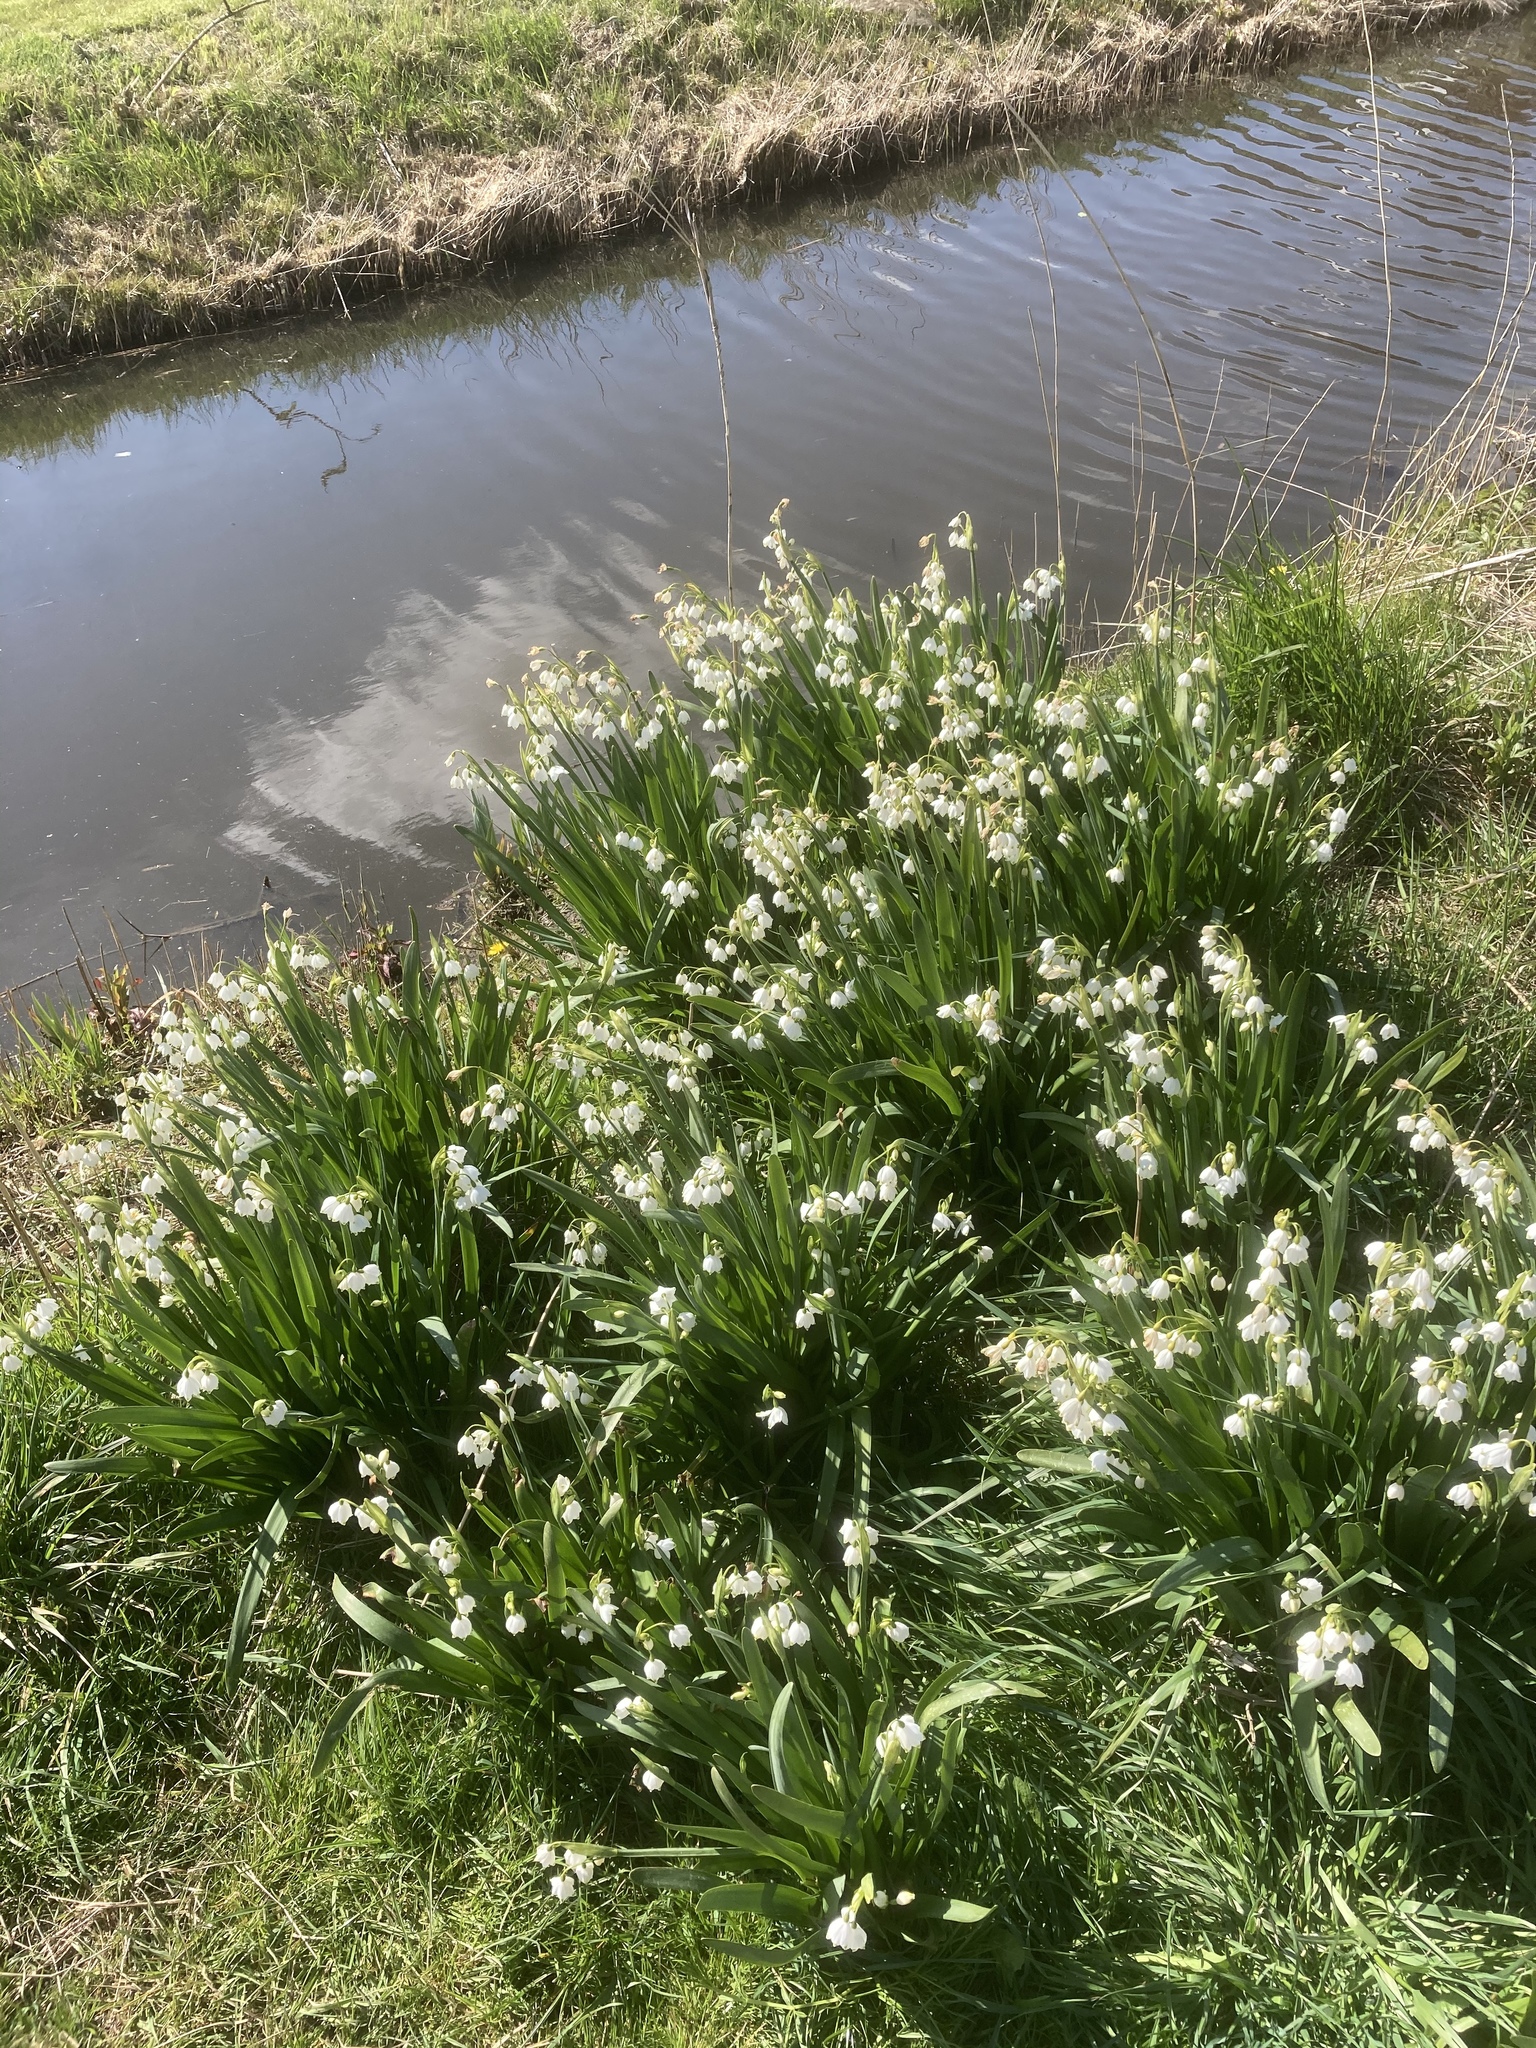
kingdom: Plantae
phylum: Tracheophyta
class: Liliopsida
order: Asparagales
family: Amaryllidaceae
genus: Leucojum
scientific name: Leucojum aestivum
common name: Summer snowflake
